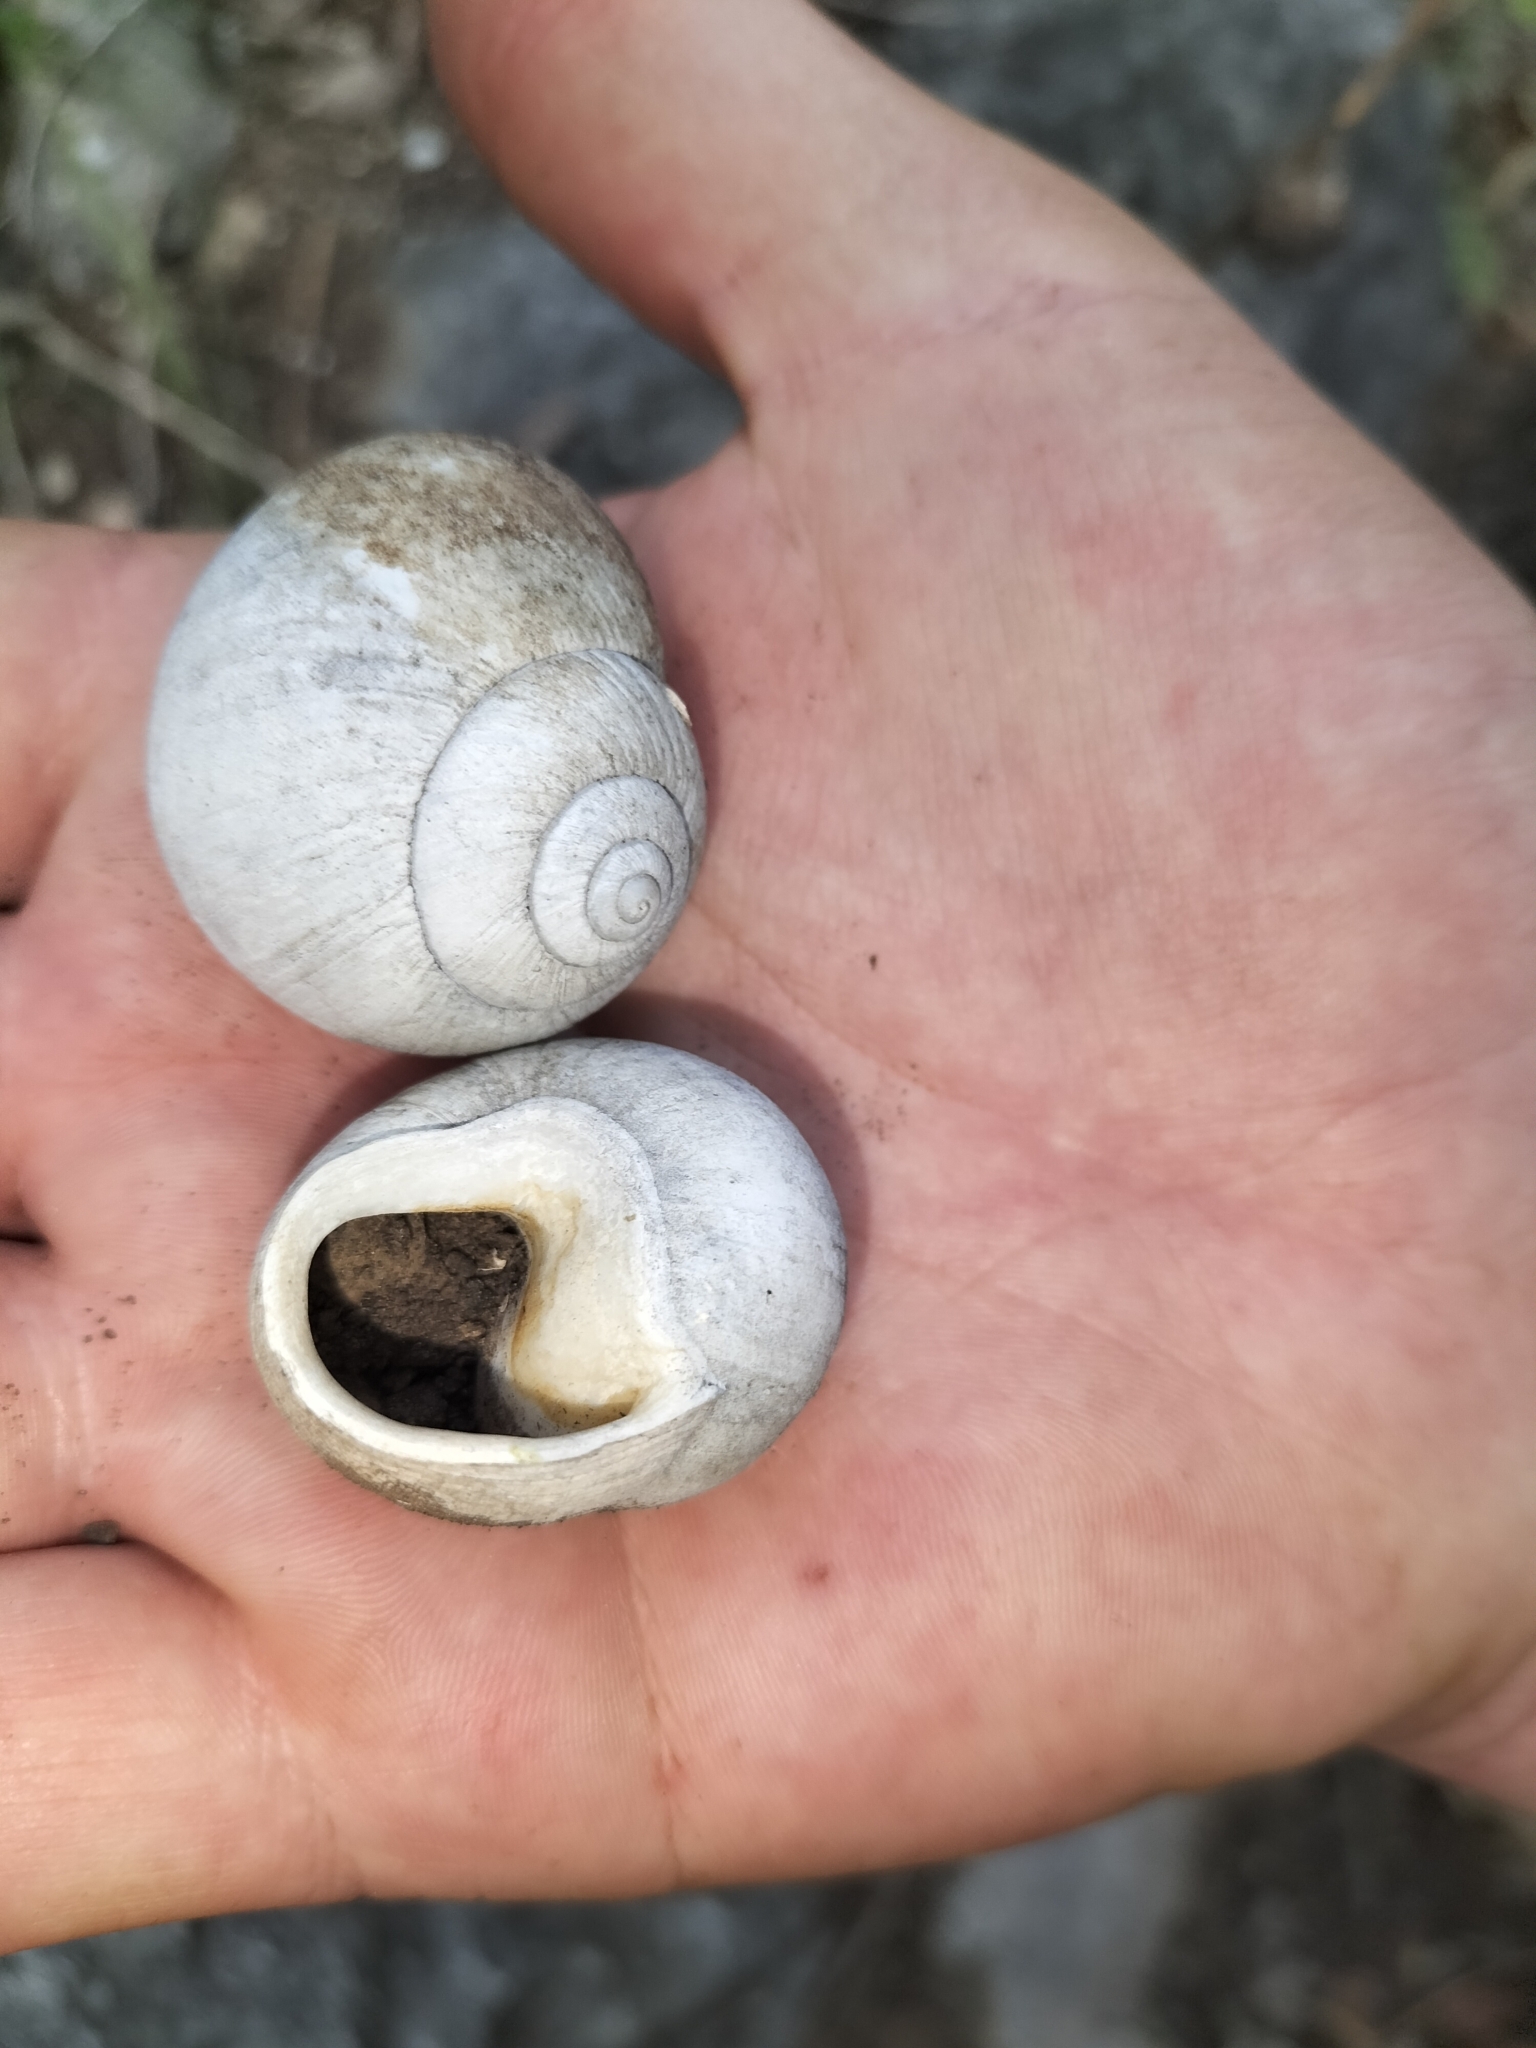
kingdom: Animalia
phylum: Mollusca
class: Gastropoda
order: Stylommatophora
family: Camaenidae
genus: Xanthomelon
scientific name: Xanthomelon saginatum
